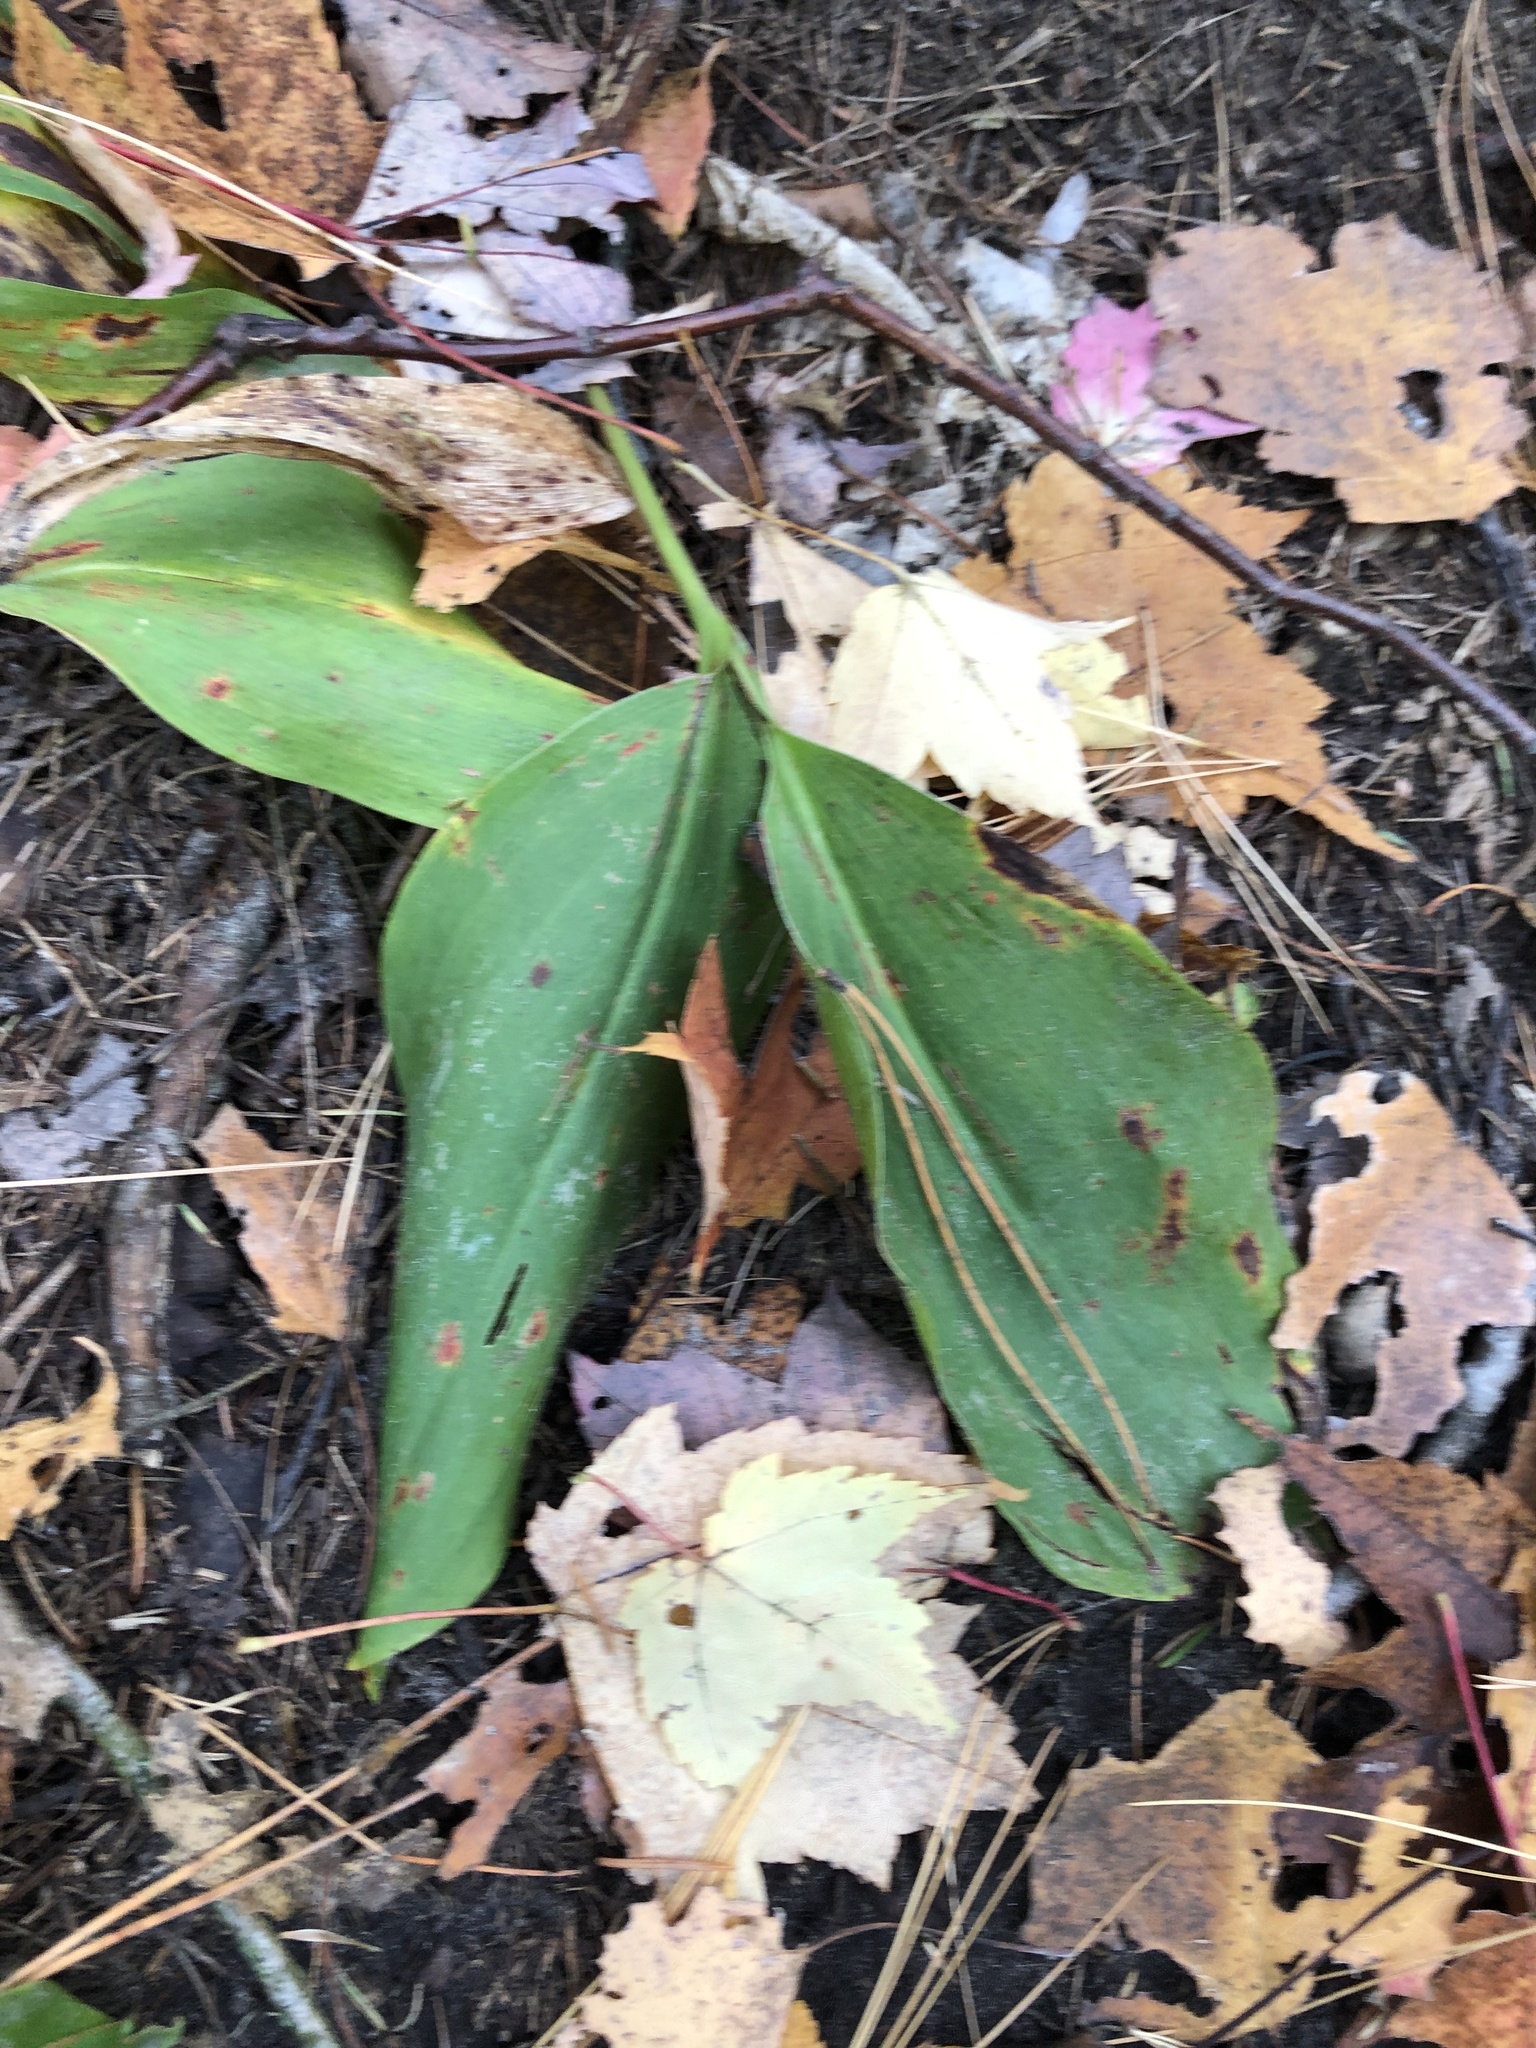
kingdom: Plantae
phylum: Tracheophyta
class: Liliopsida
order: Asparagales
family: Asparagaceae
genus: Convallaria
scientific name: Convallaria majalis
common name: Lily-of-the-valley
